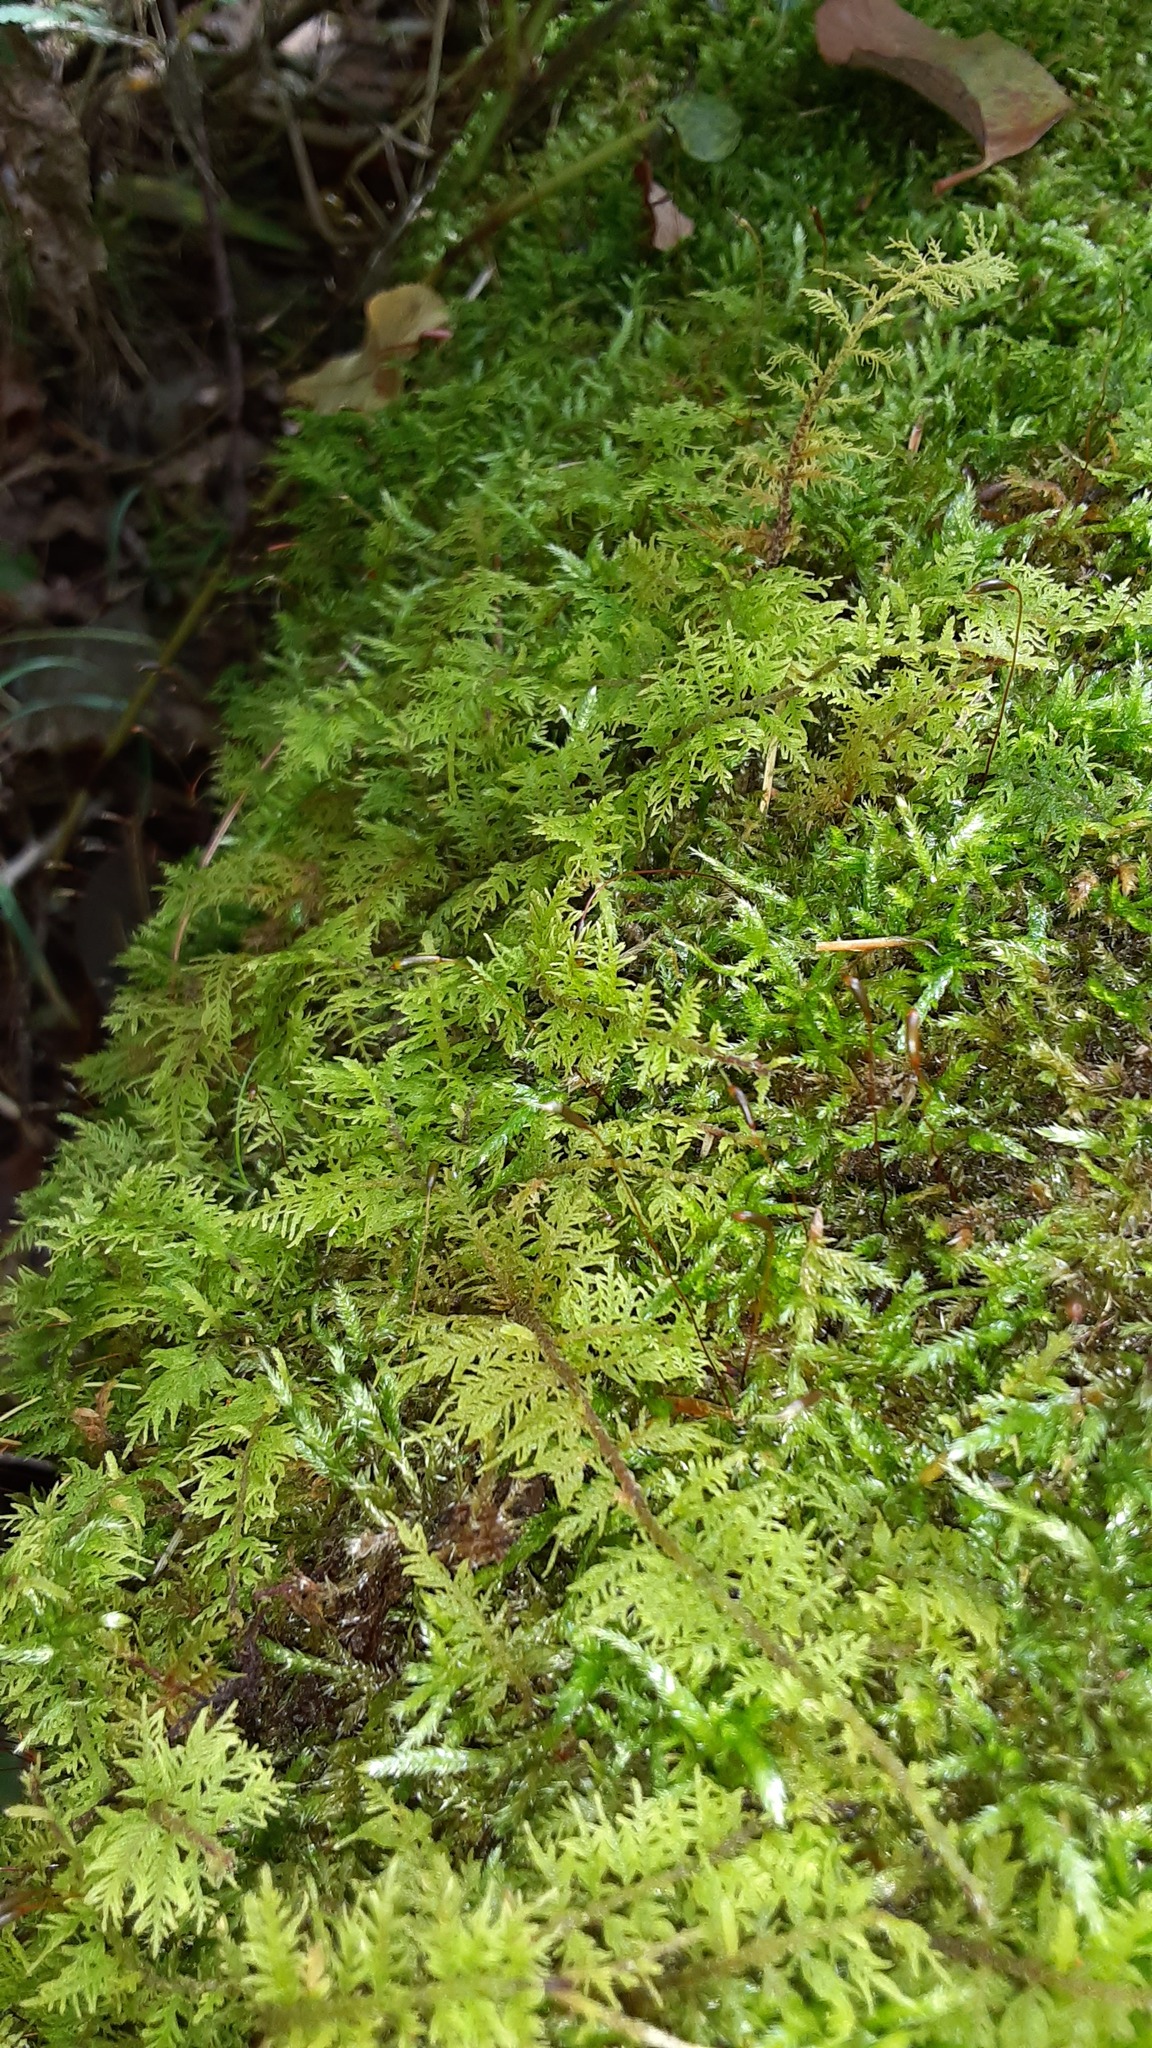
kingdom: Plantae
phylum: Bryophyta
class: Bryopsida
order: Hypnales
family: Thuidiaceae
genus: Thuidium
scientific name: Thuidium delicatulum
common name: Delicate fern moss
